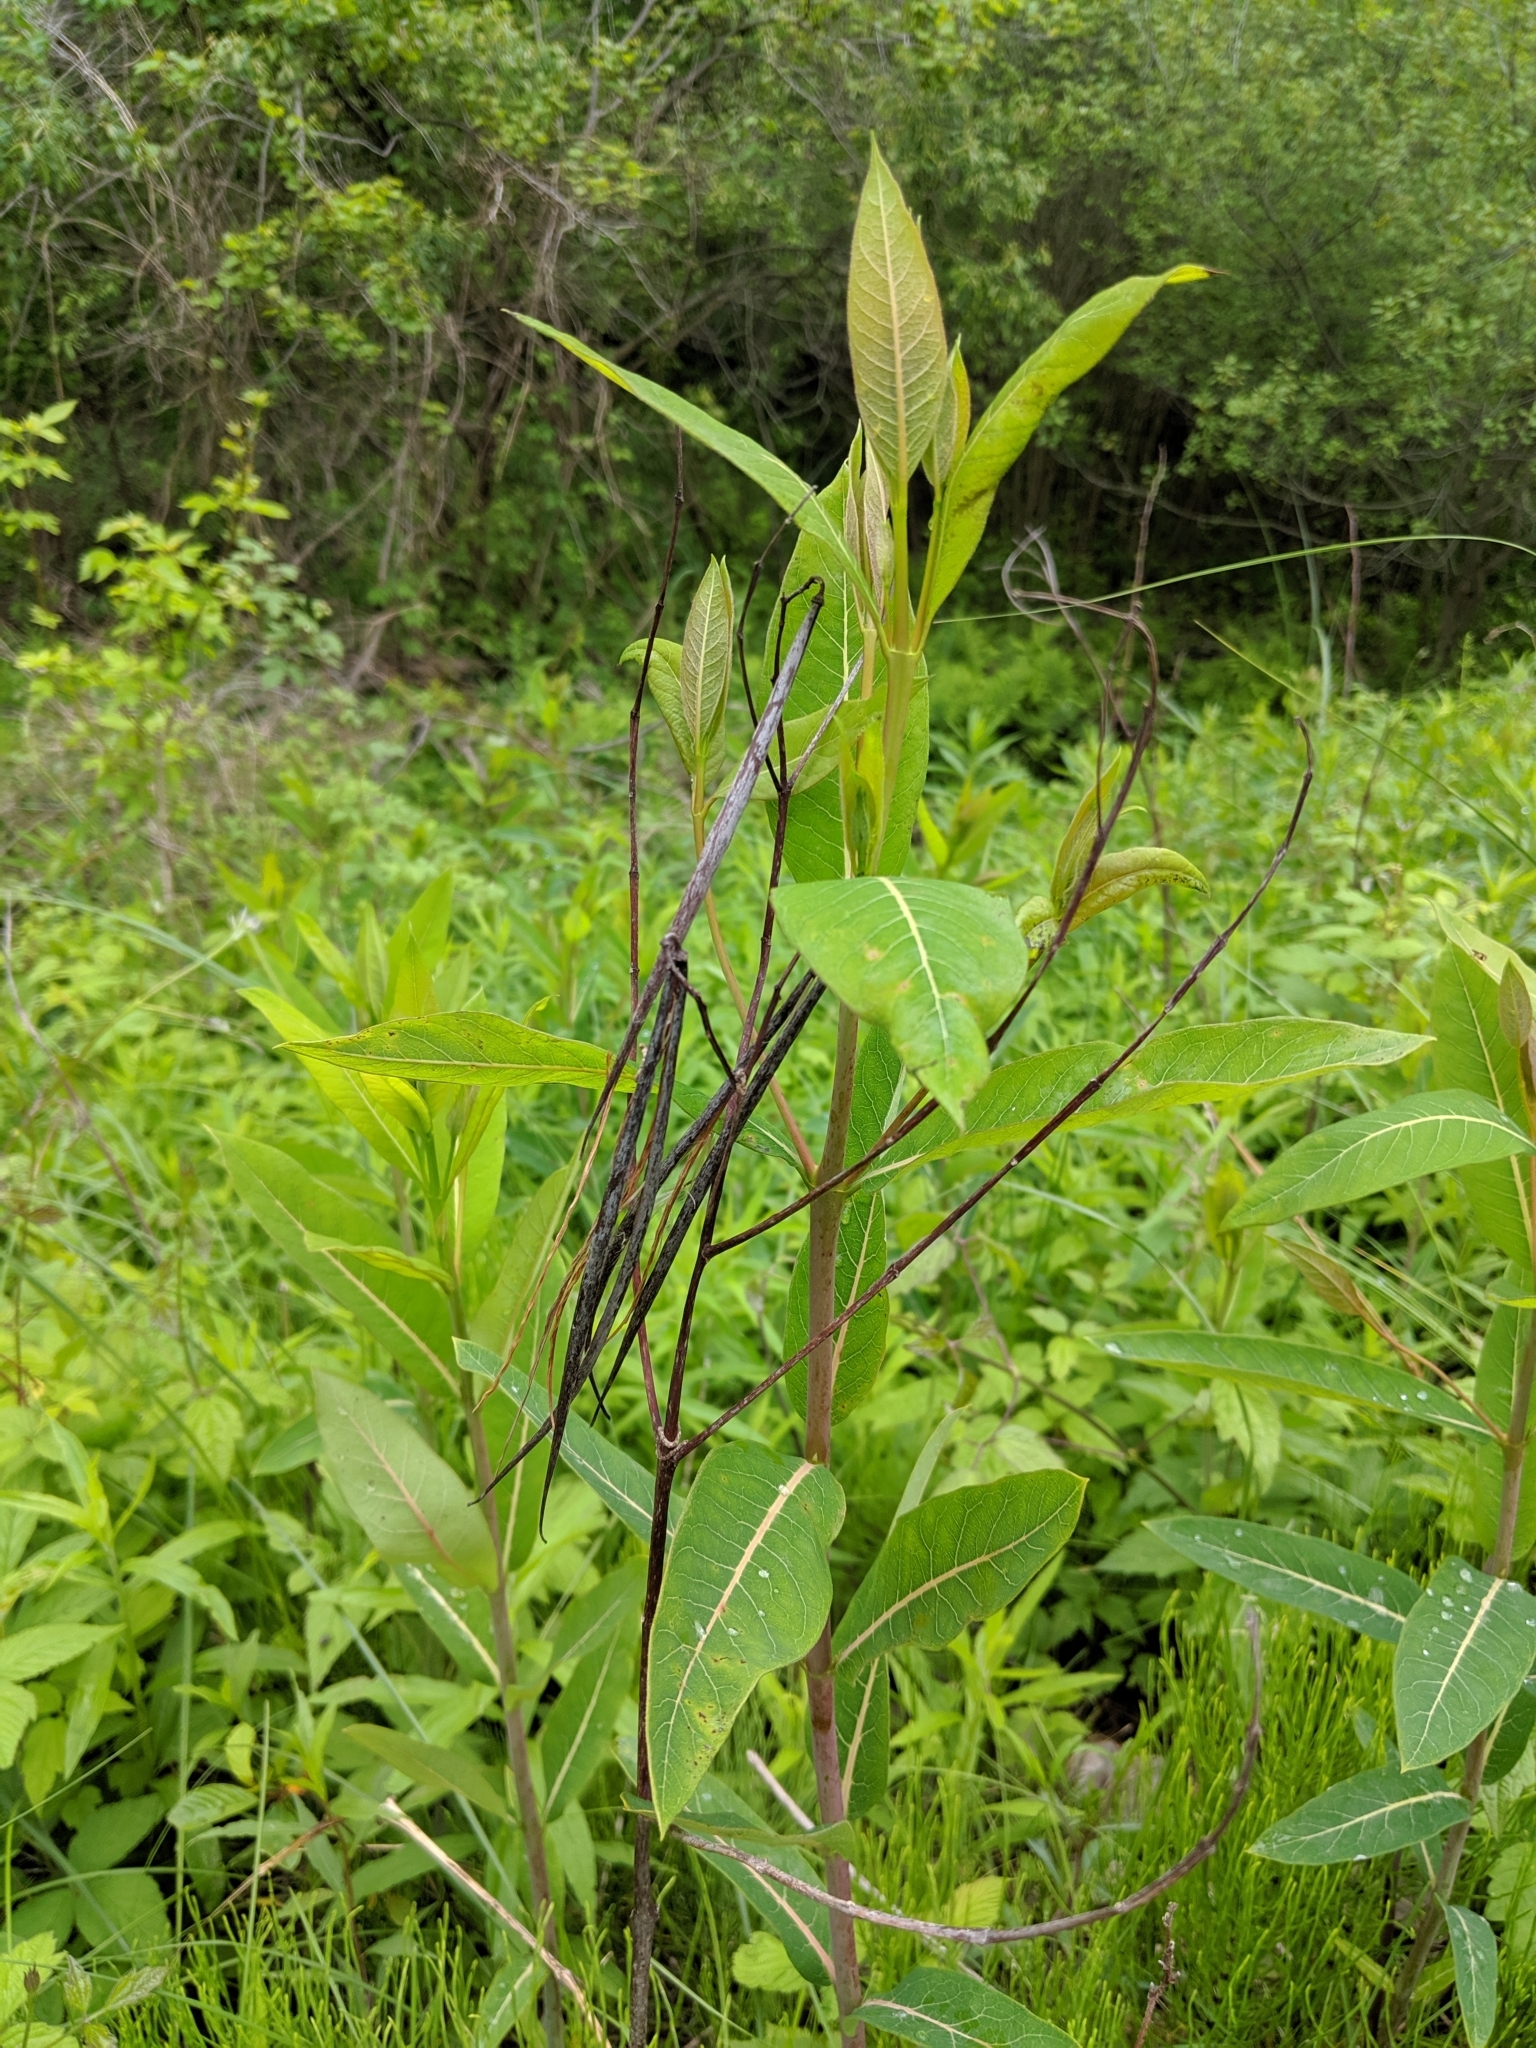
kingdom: Plantae
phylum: Tracheophyta
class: Magnoliopsida
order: Gentianales
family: Apocynaceae
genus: Apocynum
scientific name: Apocynum cannabinum
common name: Hemp dogbane
